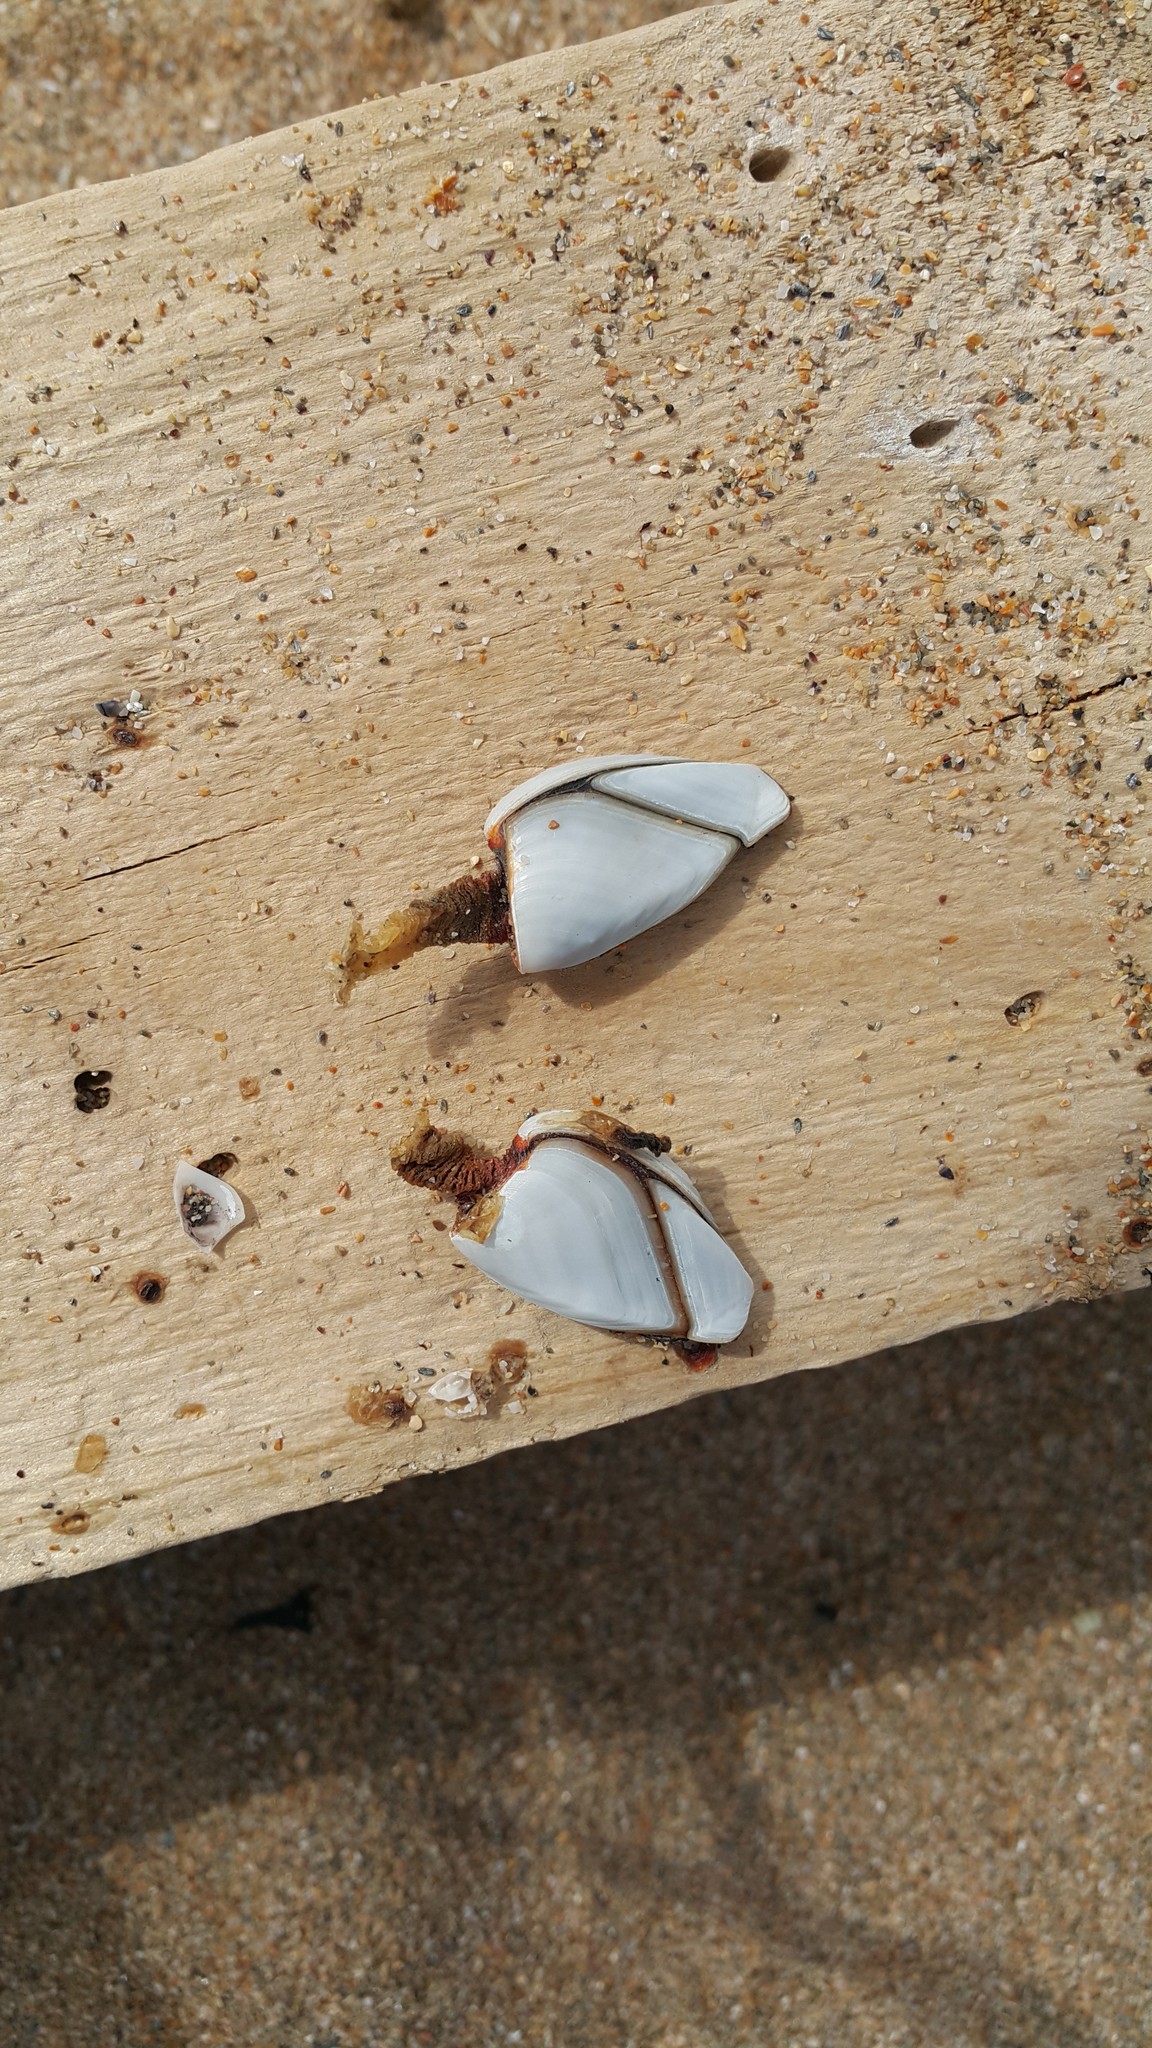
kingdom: Animalia
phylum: Arthropoda
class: Maxillopoda
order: Pedunculata
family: Lepadidae
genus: Lepas
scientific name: Lepas anatifera
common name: Common goose barnacle
